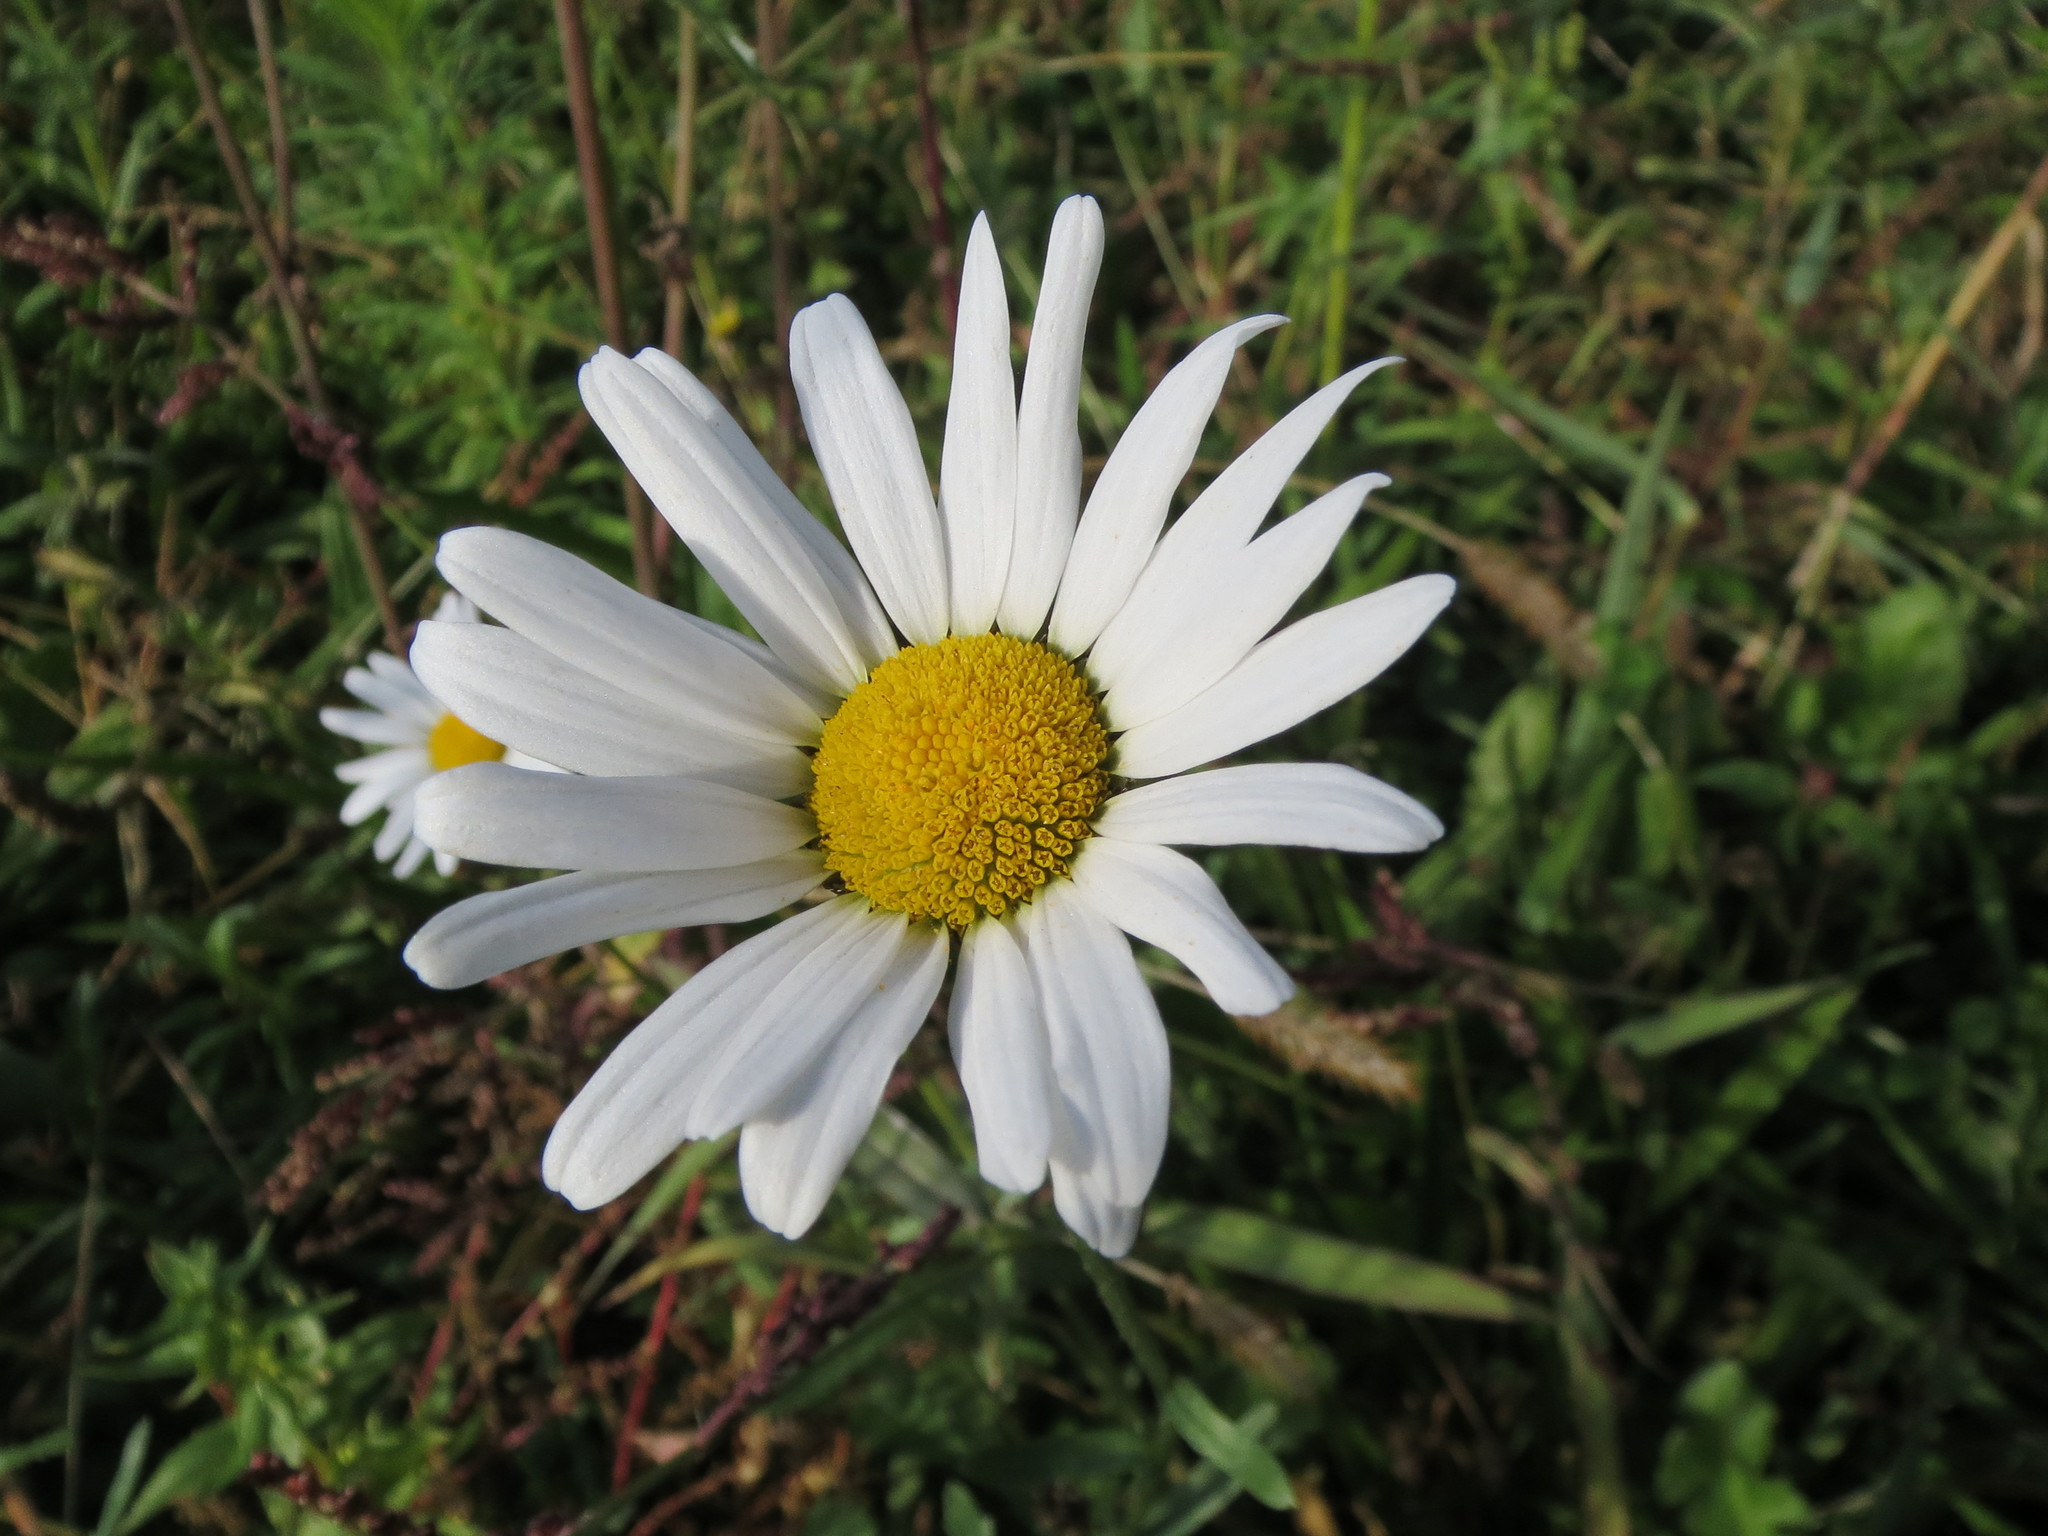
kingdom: Plantae
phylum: Tracheophyta
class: Magnoliopsida
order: Asterales
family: Asteraceae
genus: Leucanthemum
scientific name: Leucanthemum vulgare
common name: Oxeye daisy
